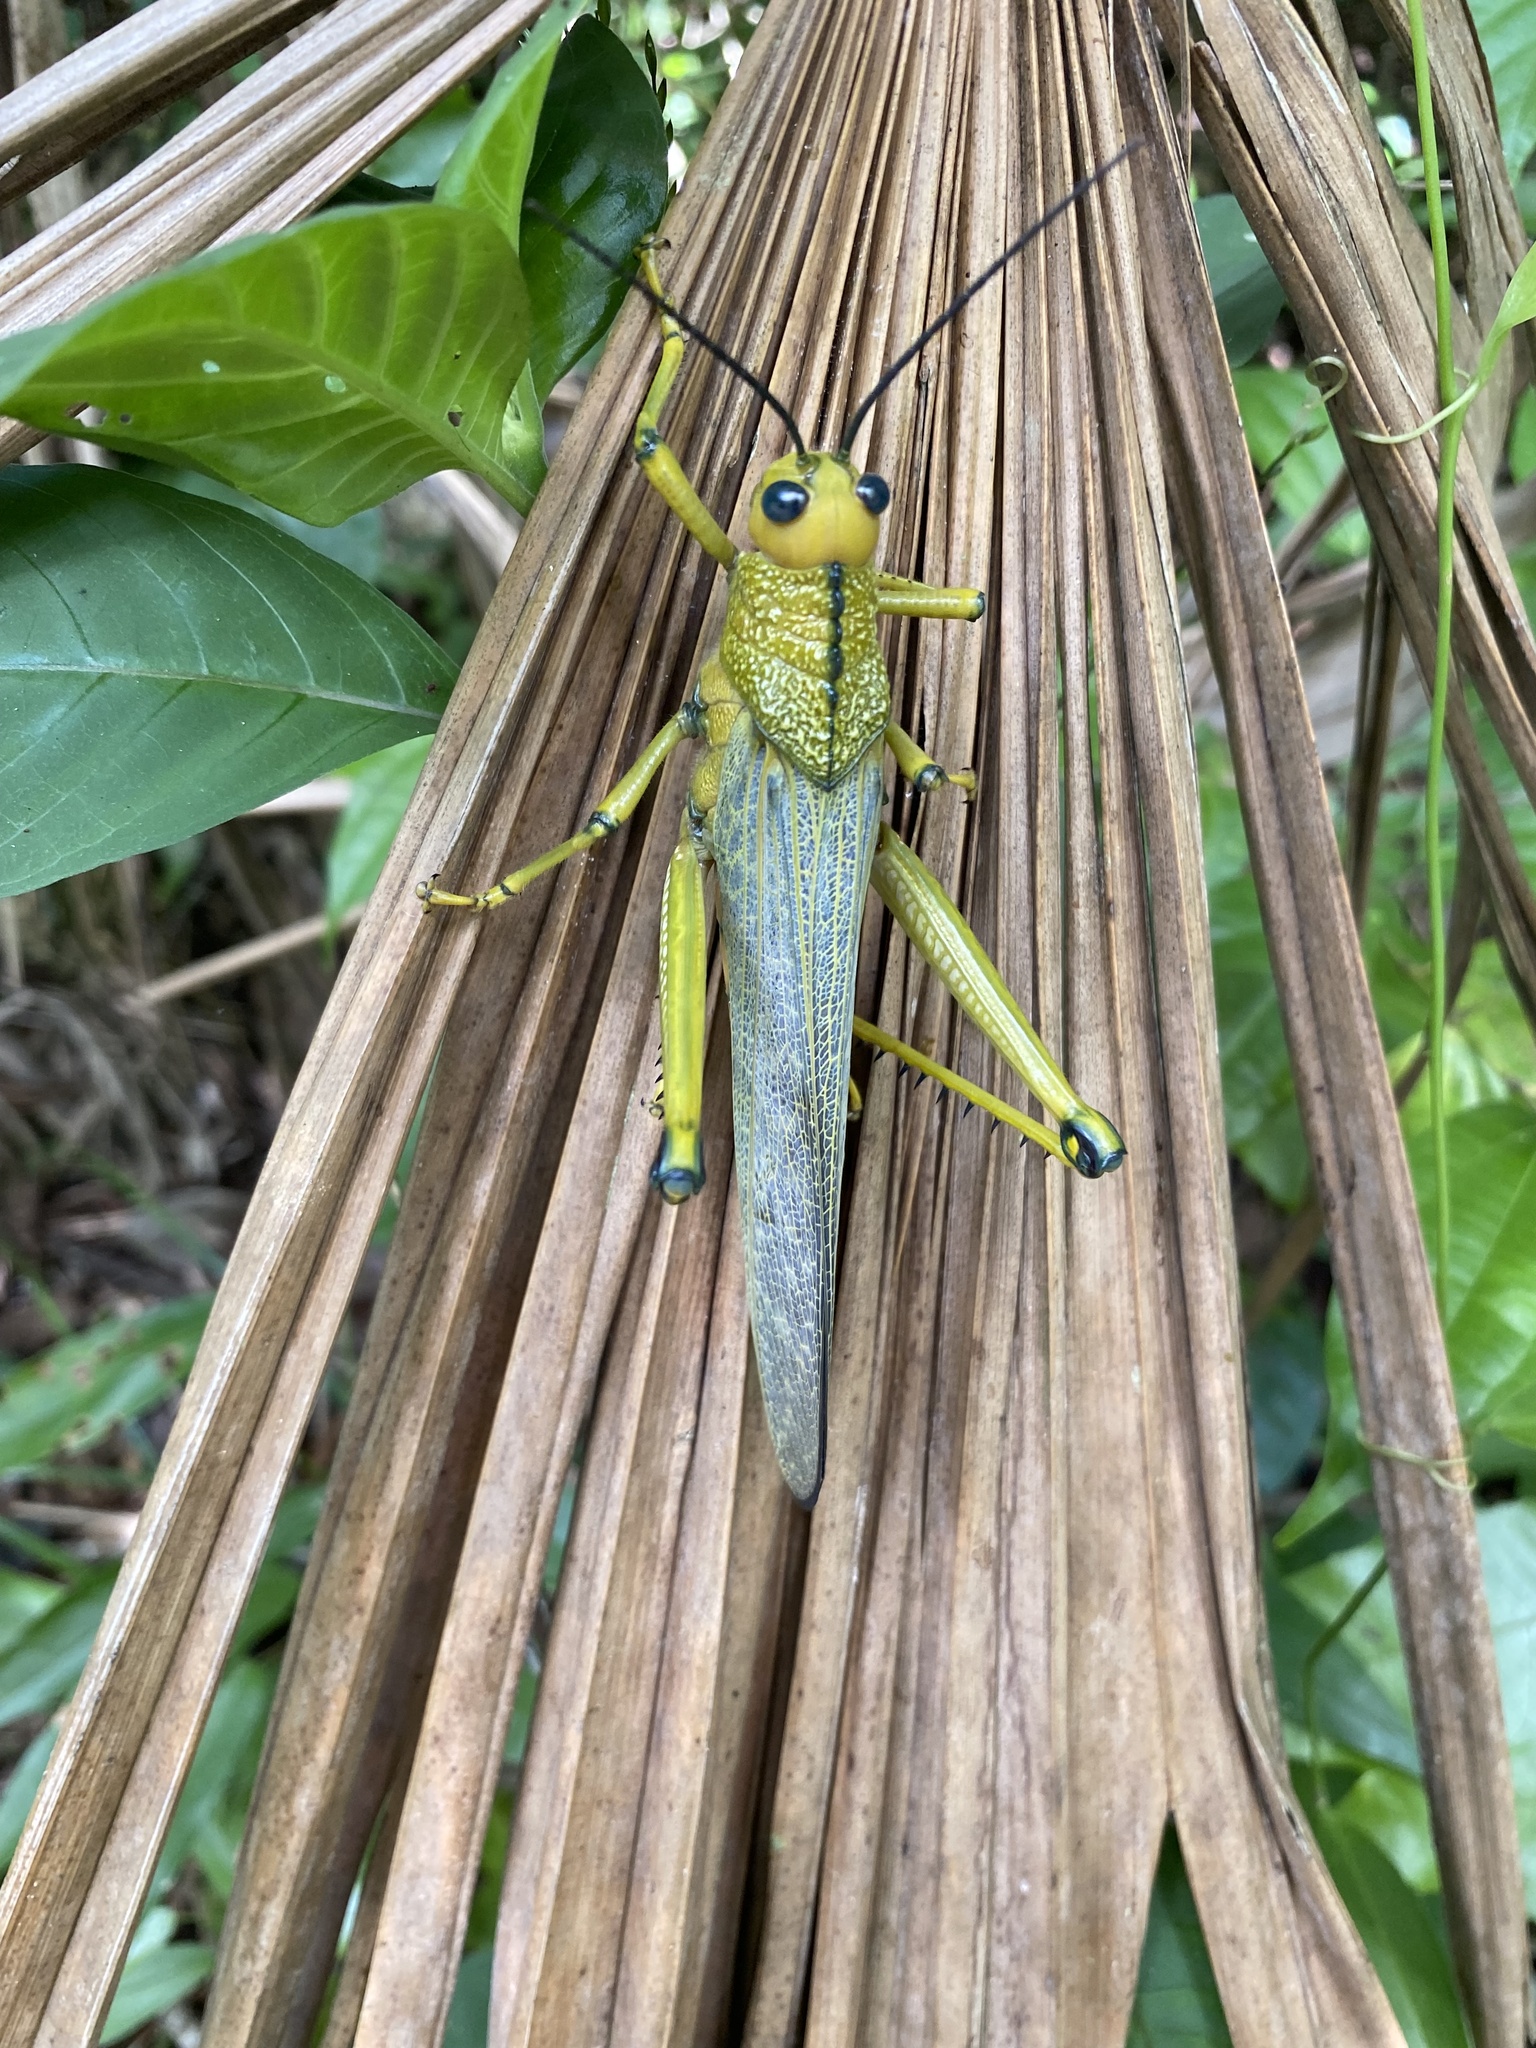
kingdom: Animalia
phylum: Arthropoda
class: Insecta
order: Orthoptera
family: Romaleidae
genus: Tropidacris
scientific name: Tropidacris cristata
